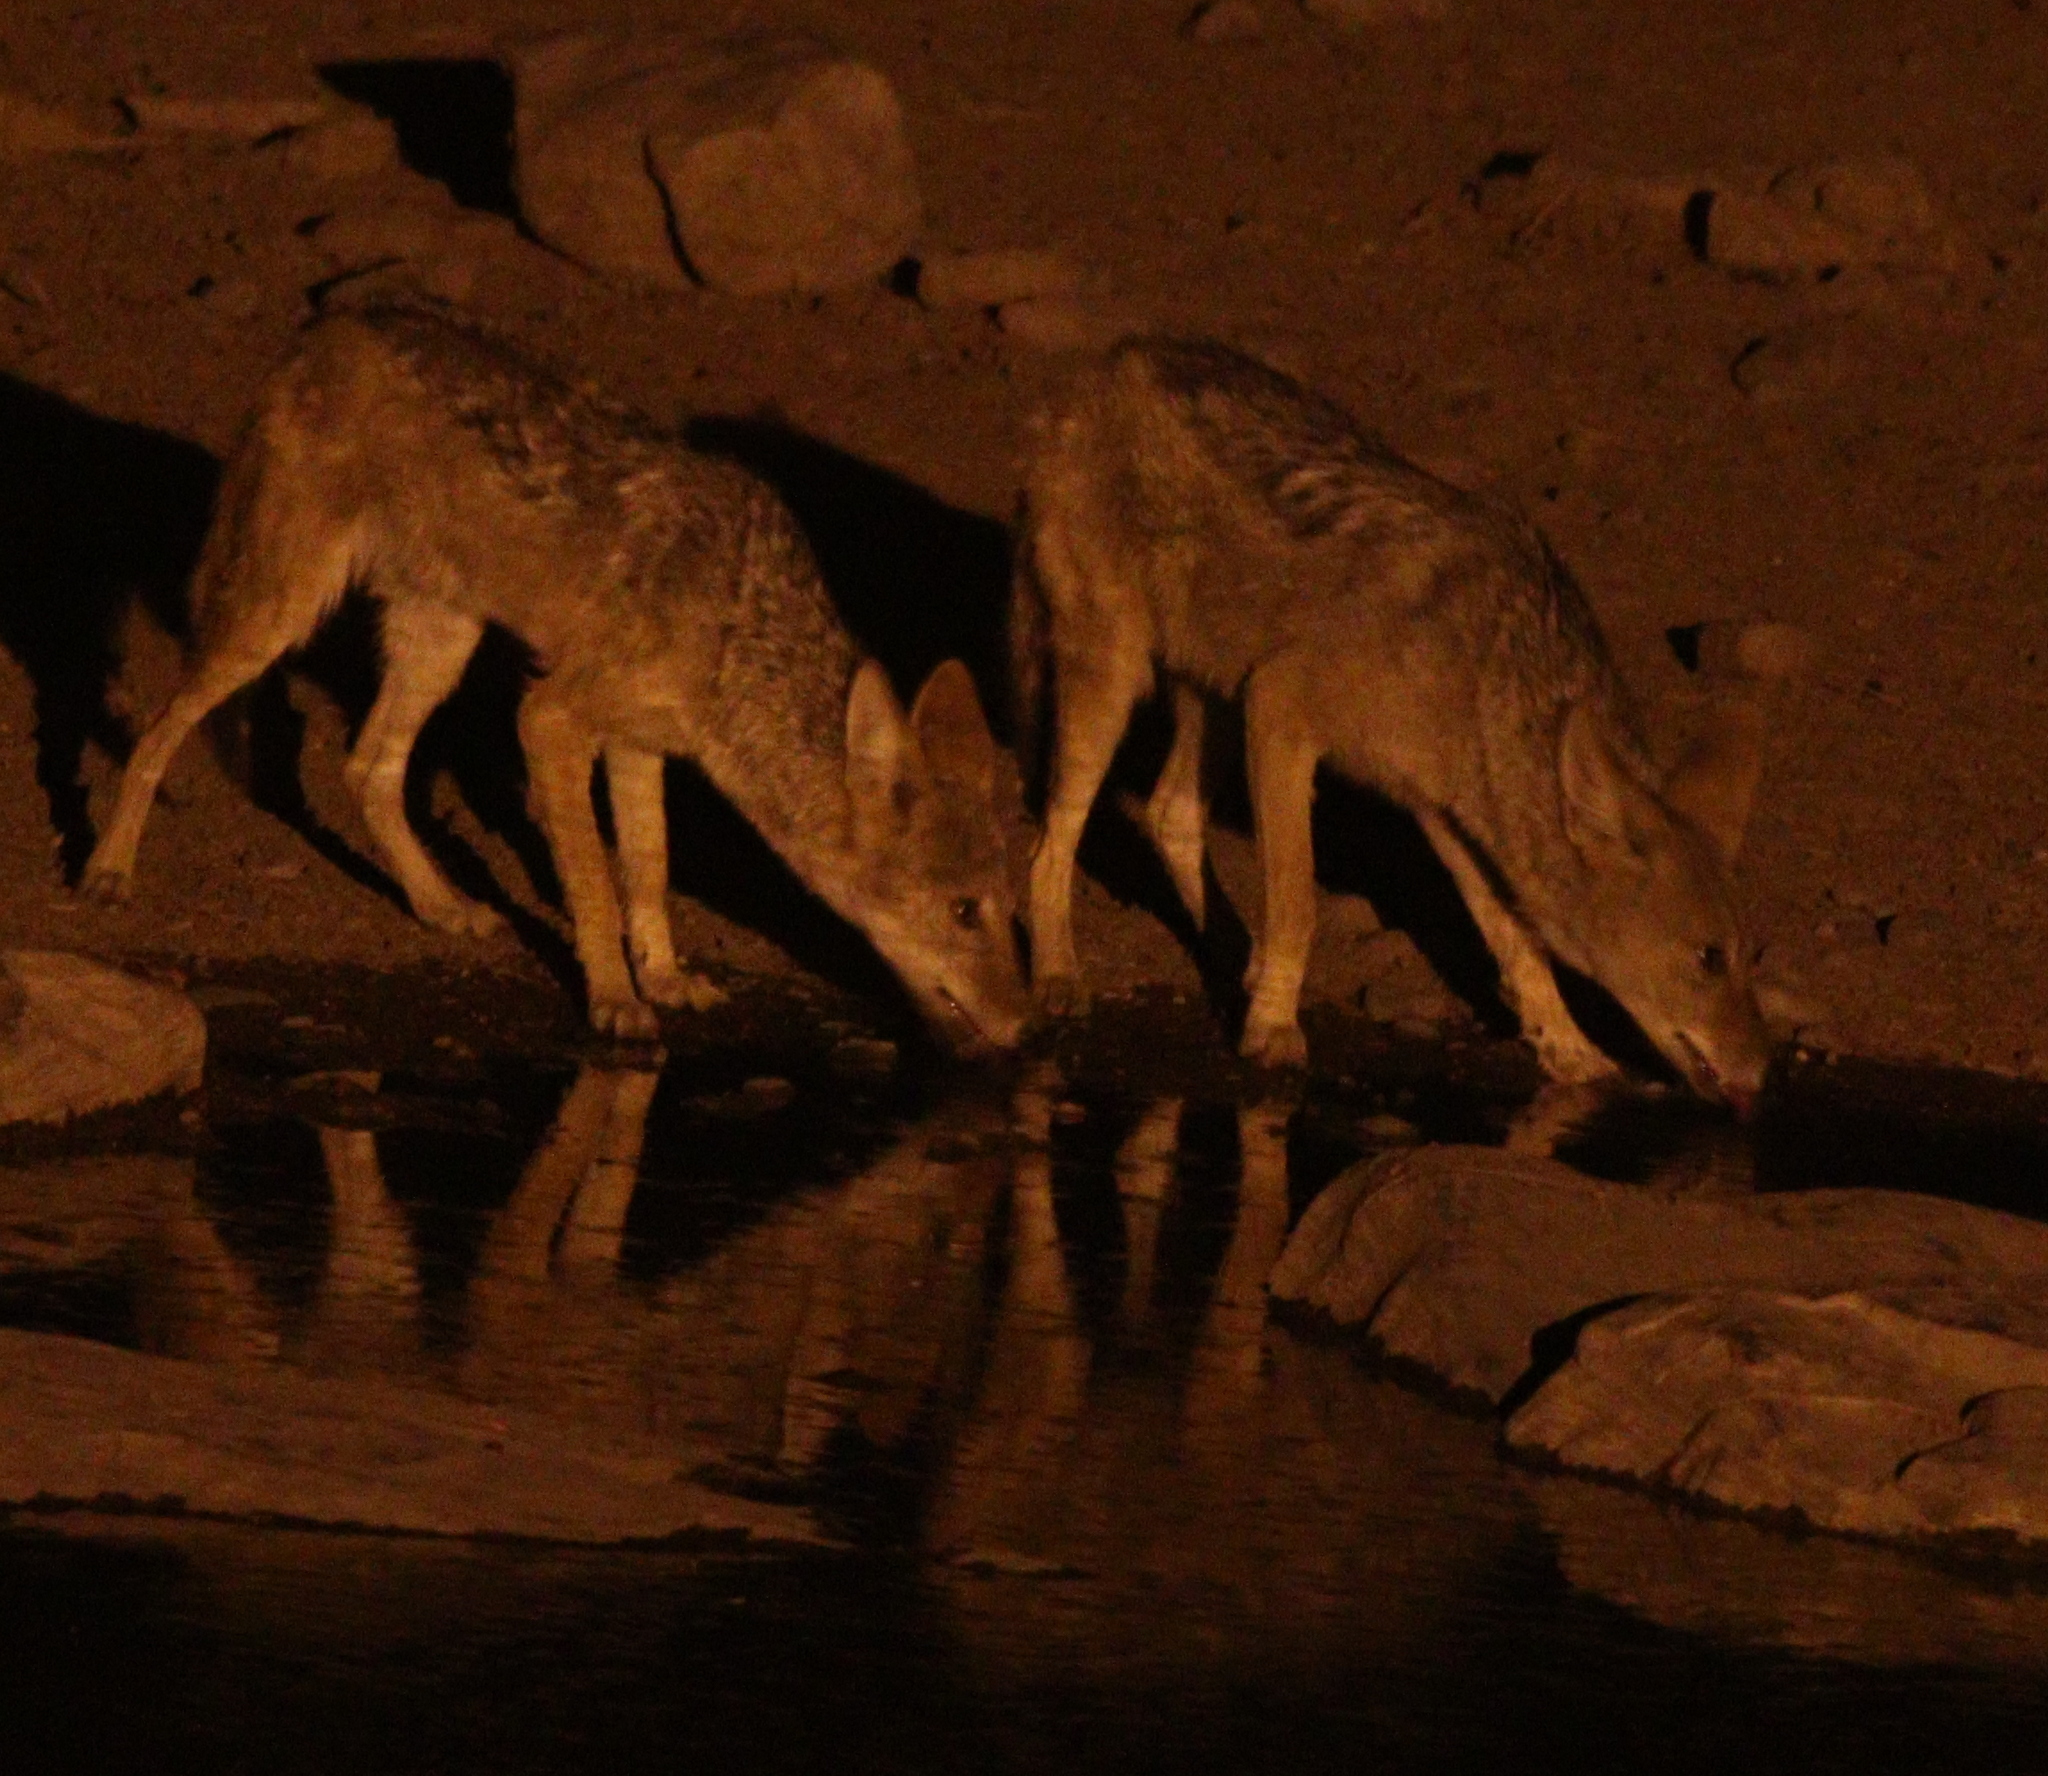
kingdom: Animalia
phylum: Chordata
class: Mammalia
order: Carnivora
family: Canidae
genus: Lupulella
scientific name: Lupulella
